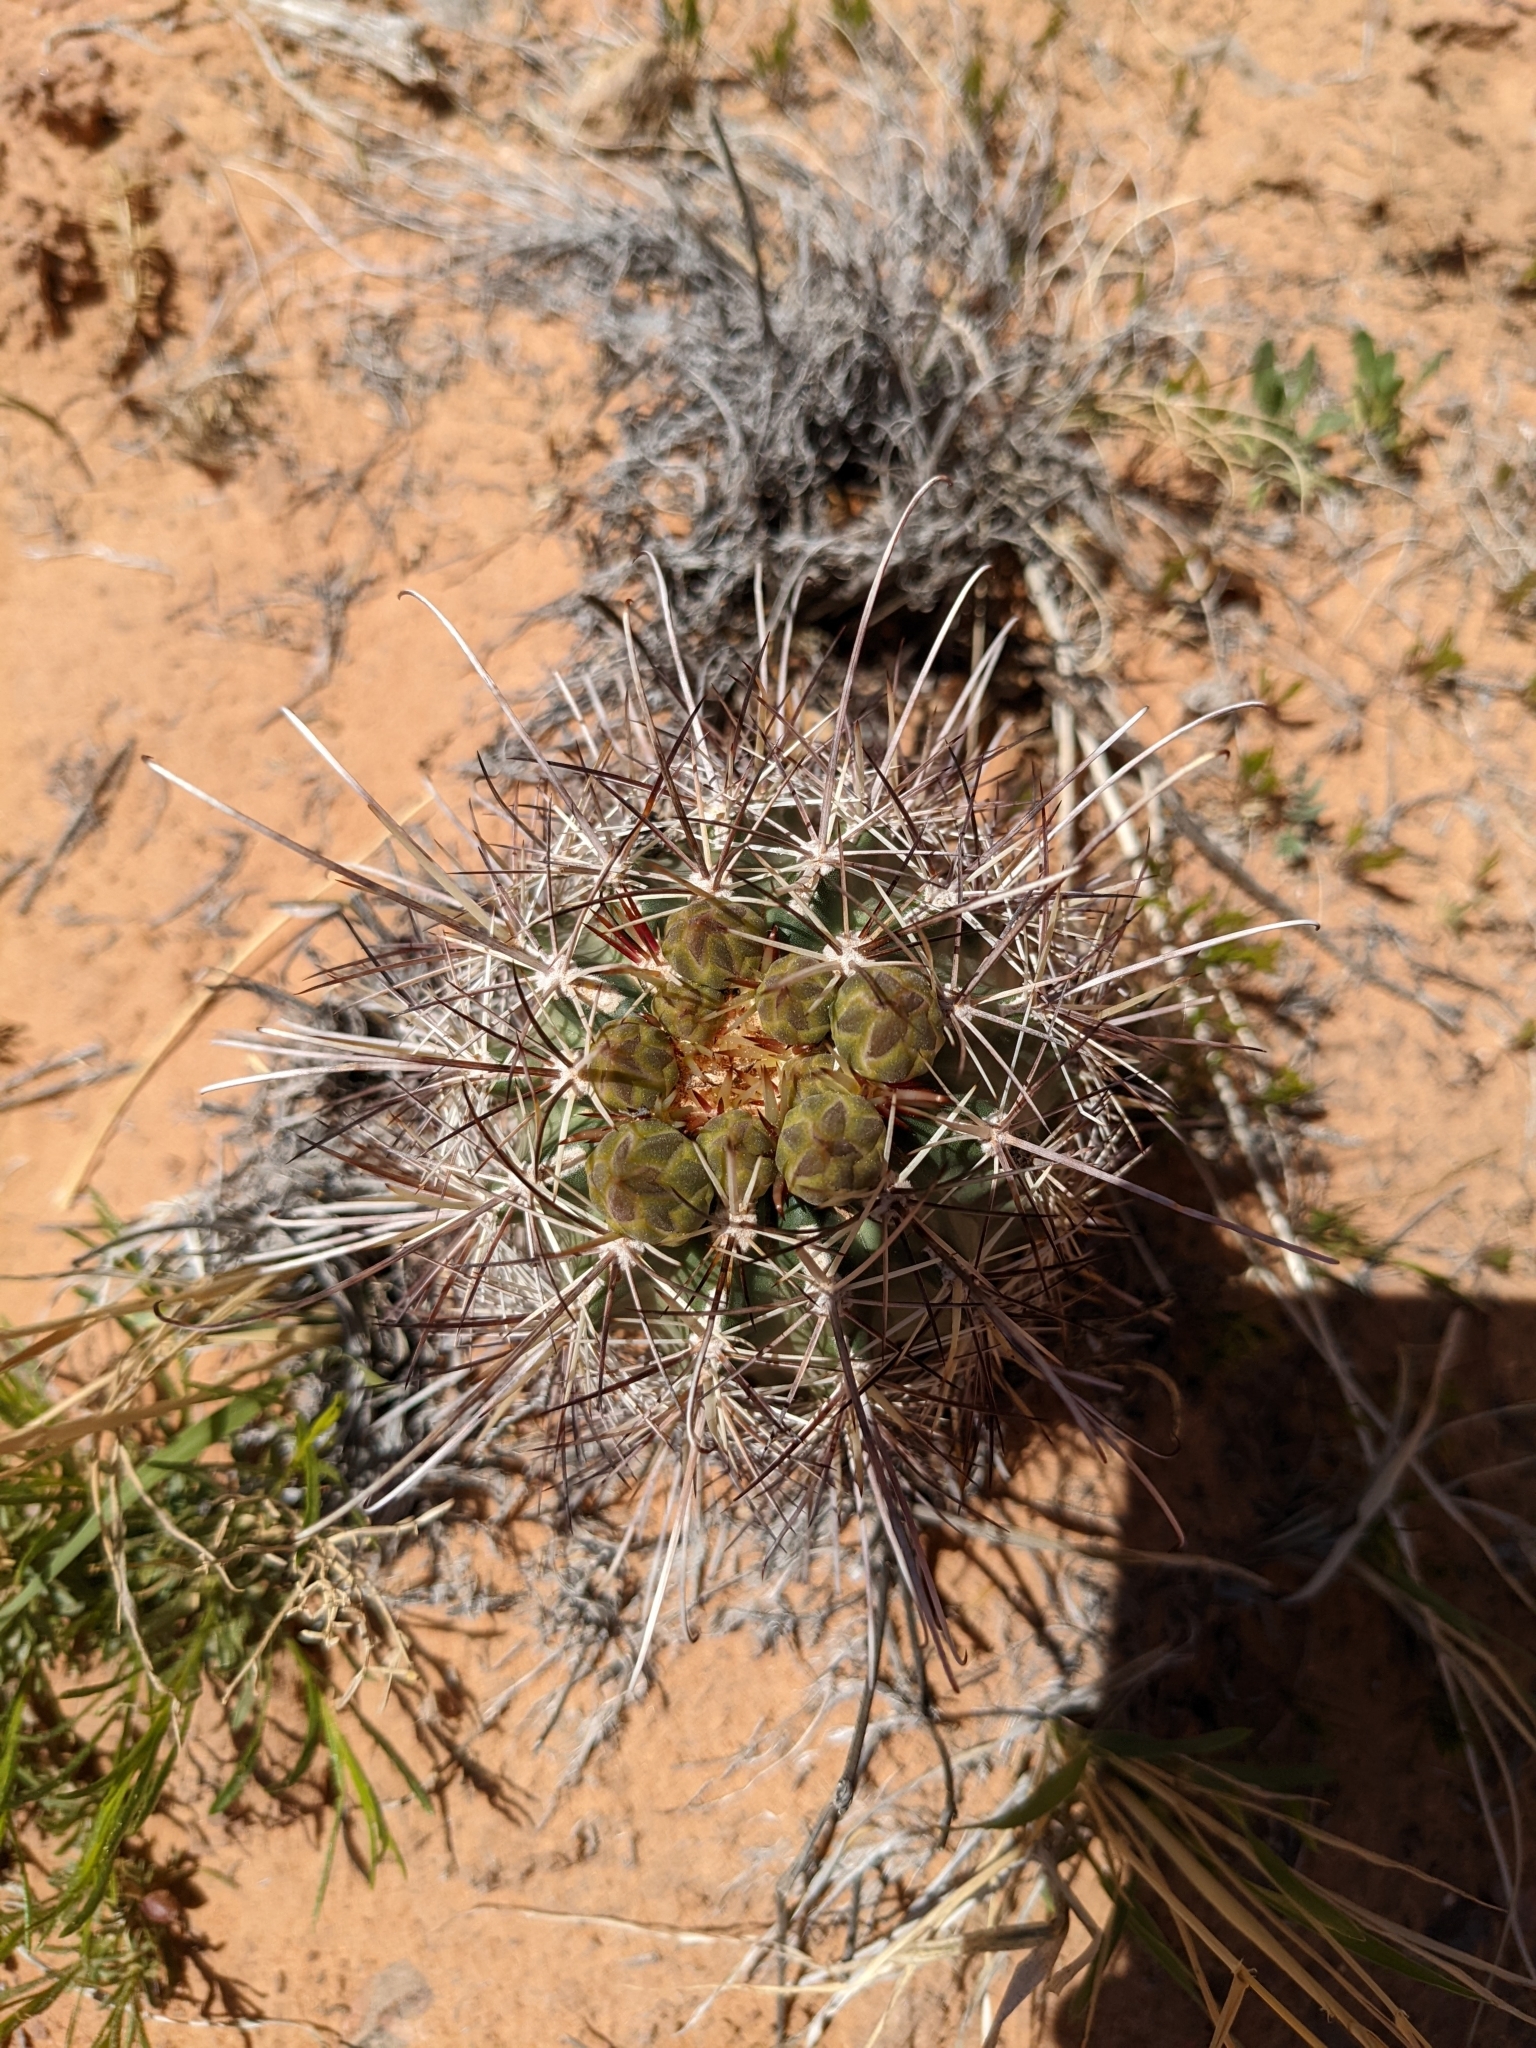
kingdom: Plantae
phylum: Tracheophyta
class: Magnoliopsida
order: Caryophyllales
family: Cactaceae
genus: Sclerocactus
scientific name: Sclerocactus parviflorus
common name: Small-flower fishhook cactus
